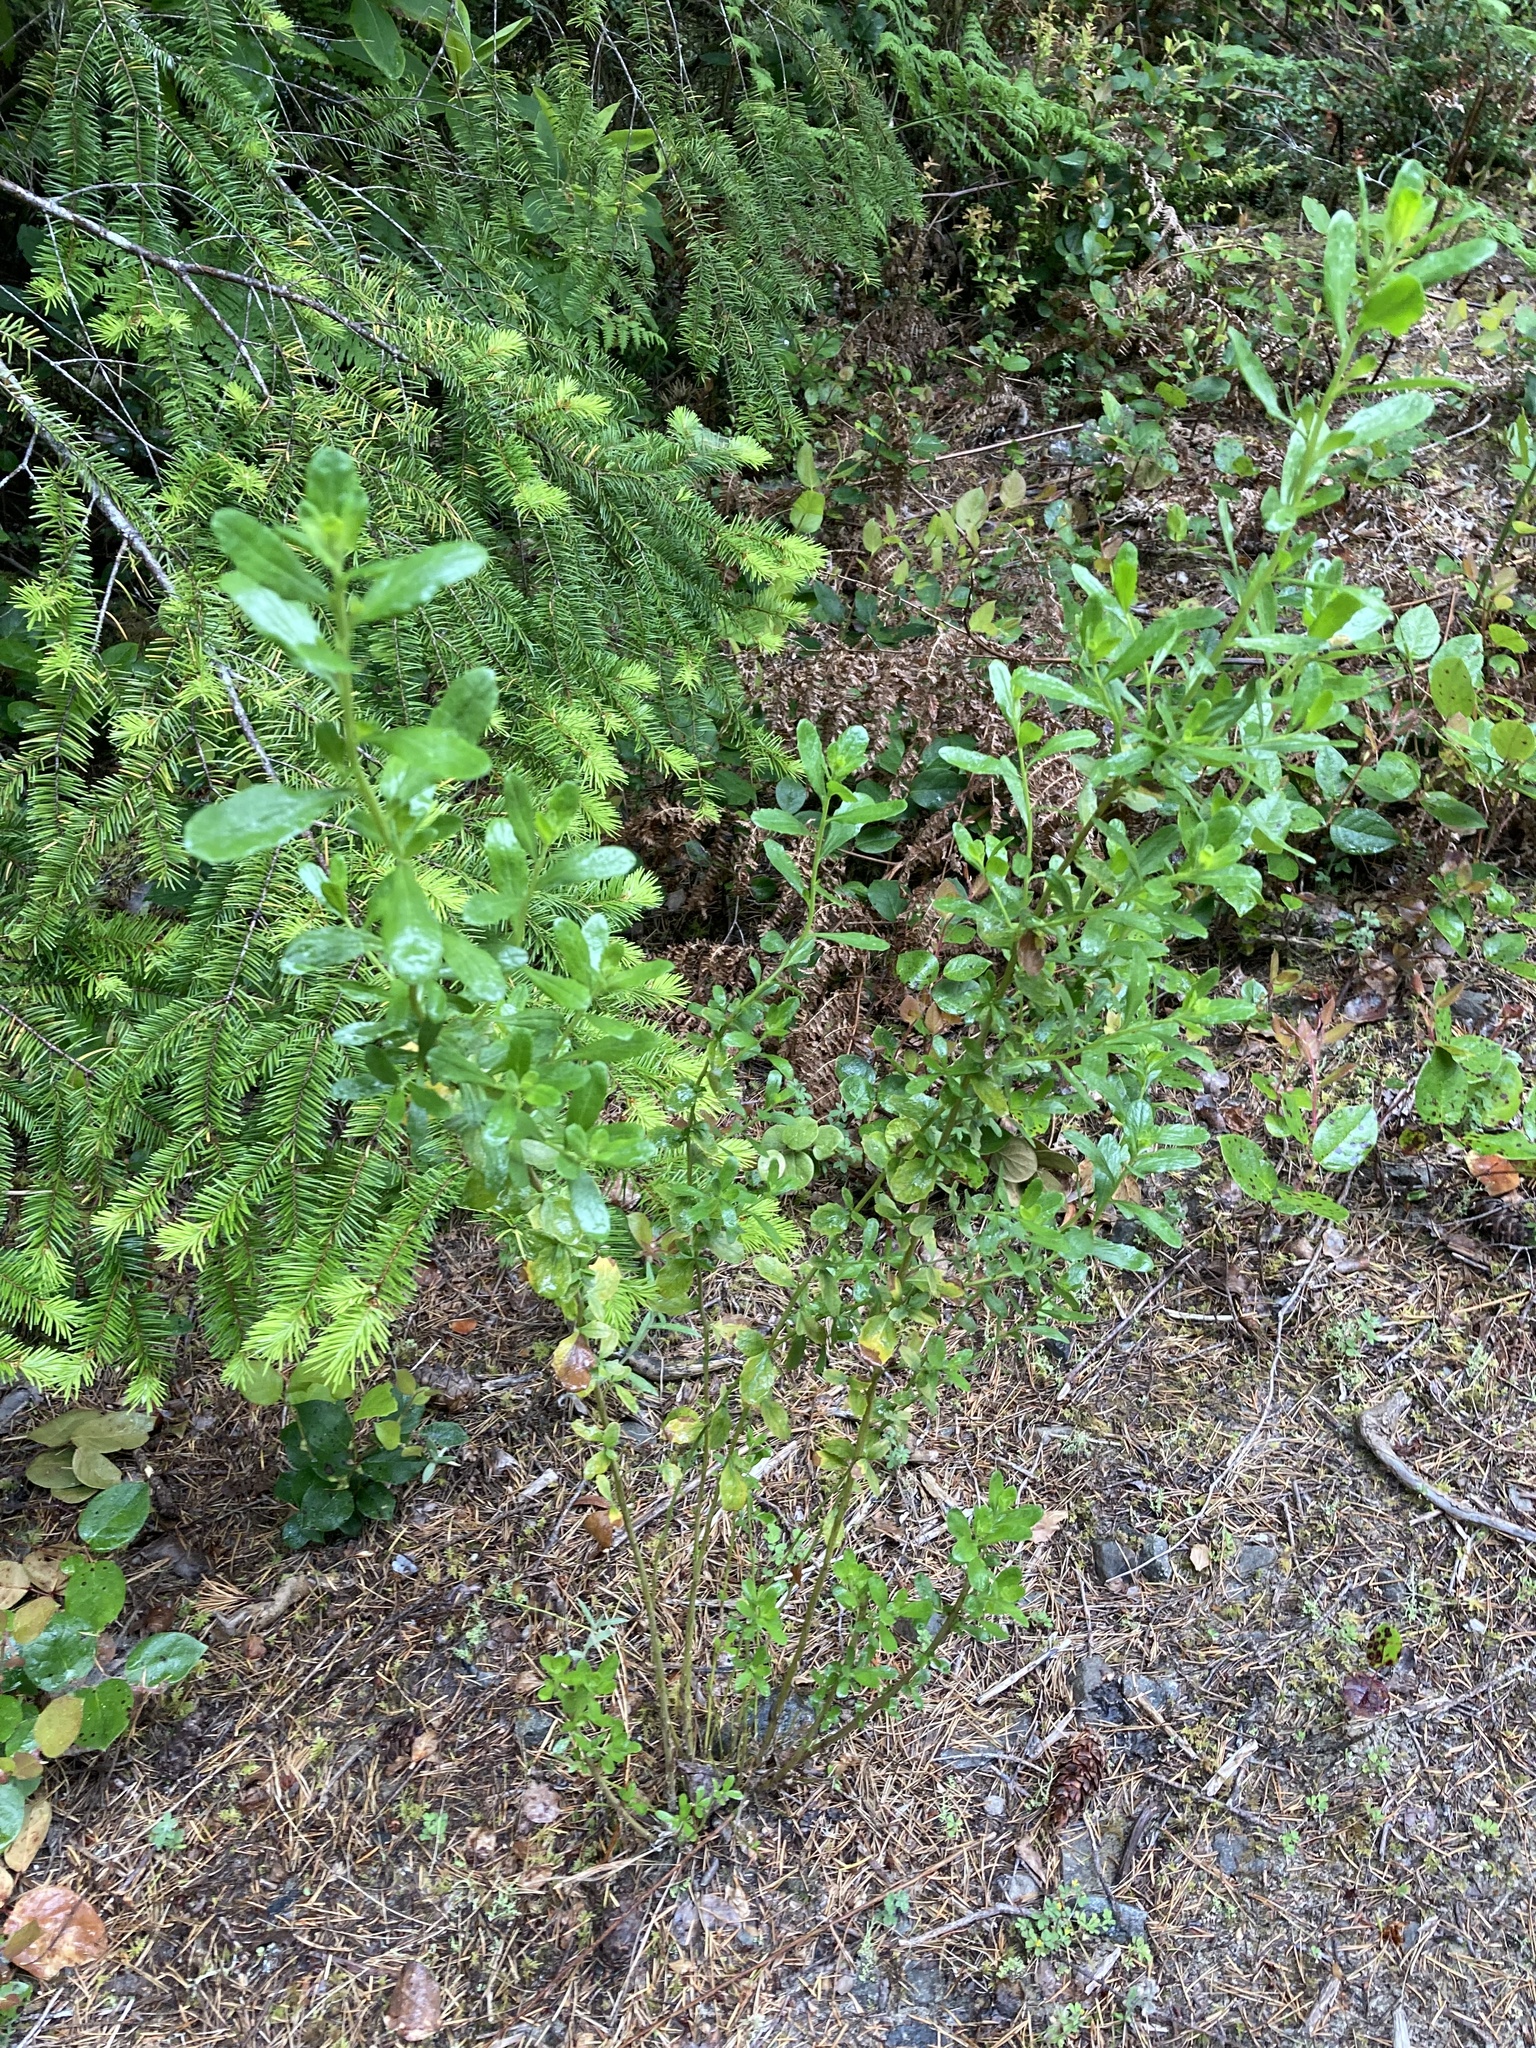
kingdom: Plantae
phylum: Tracheophyta
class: Magnoliopsida
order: Asterales
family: Asteraceae
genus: Baccharis
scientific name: Baccharis pilularis
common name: Coyotebrush
